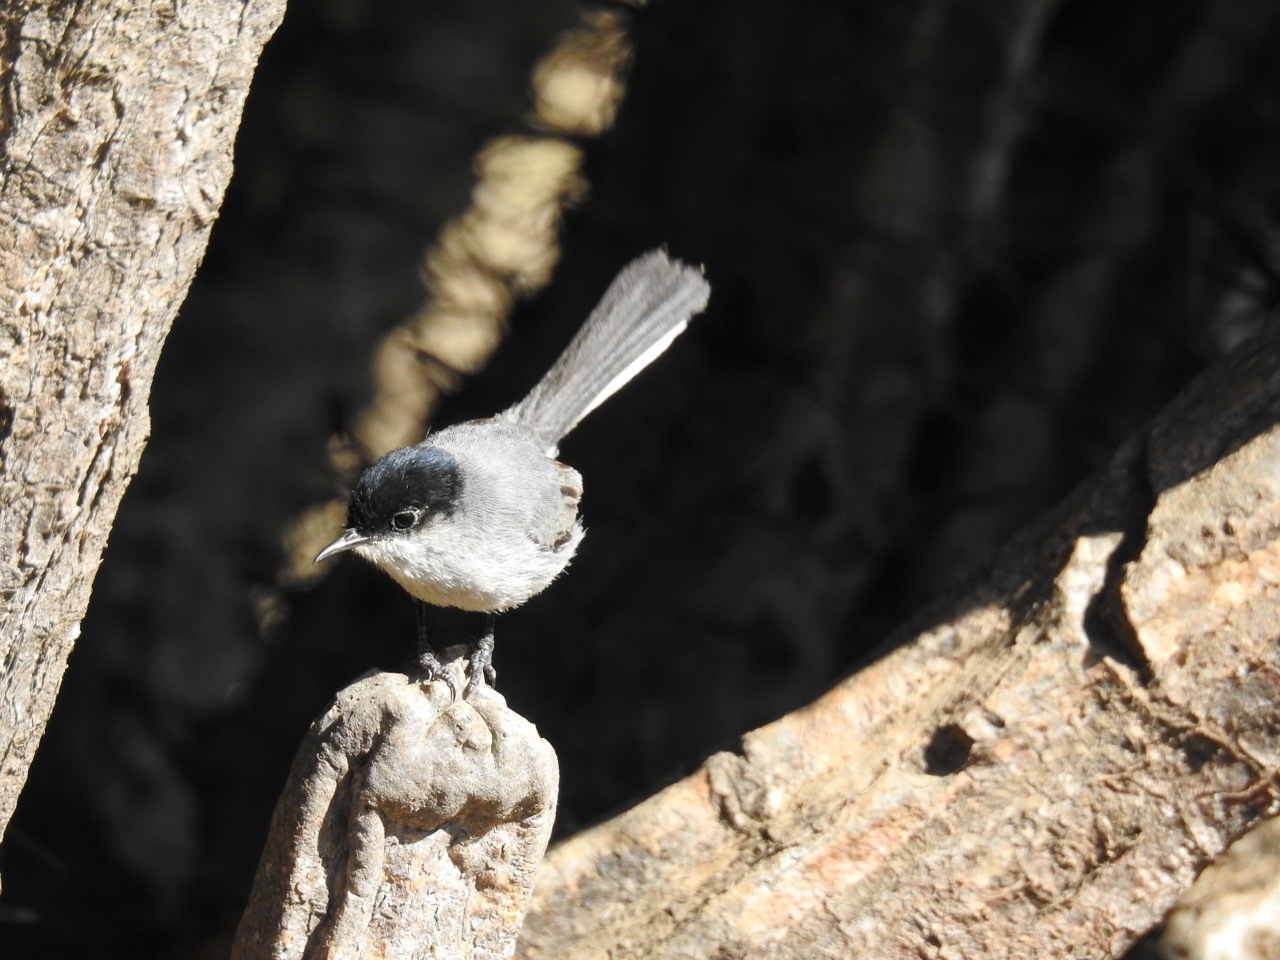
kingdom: Animalia
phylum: Chordata
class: Aves
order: Passeriformes
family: Polioptilidae
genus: Polioptila
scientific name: Polioptila californica
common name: California gnatcatcher
